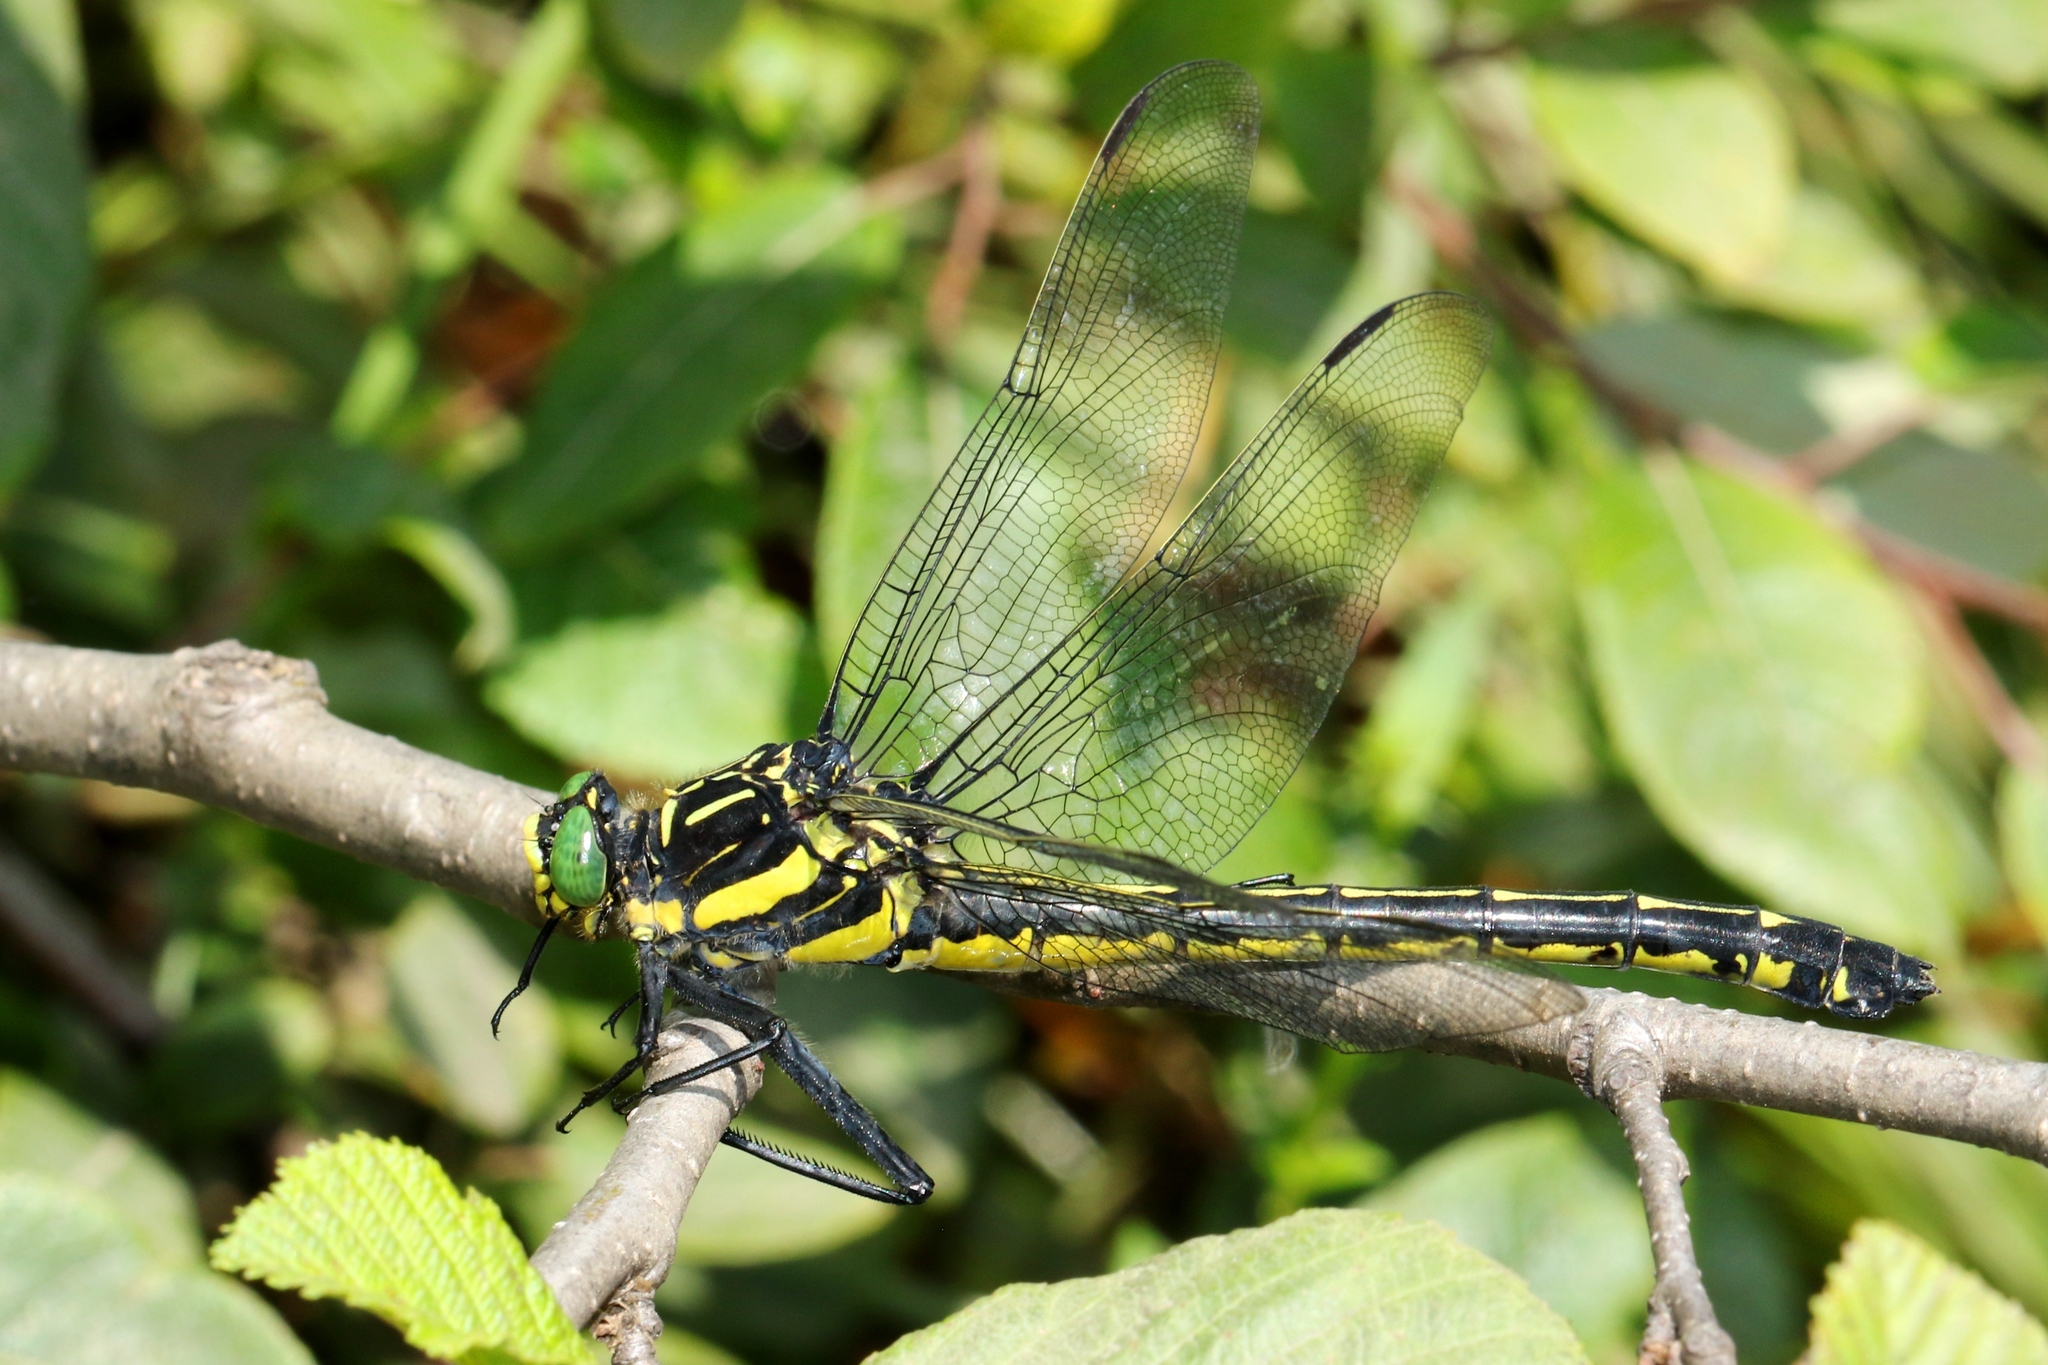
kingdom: Animalia
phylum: Arthropoda
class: Insecta
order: Odonata
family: Gomphidae
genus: Hagenius
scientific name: Hagenius brevistylus
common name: Dragonhunter
